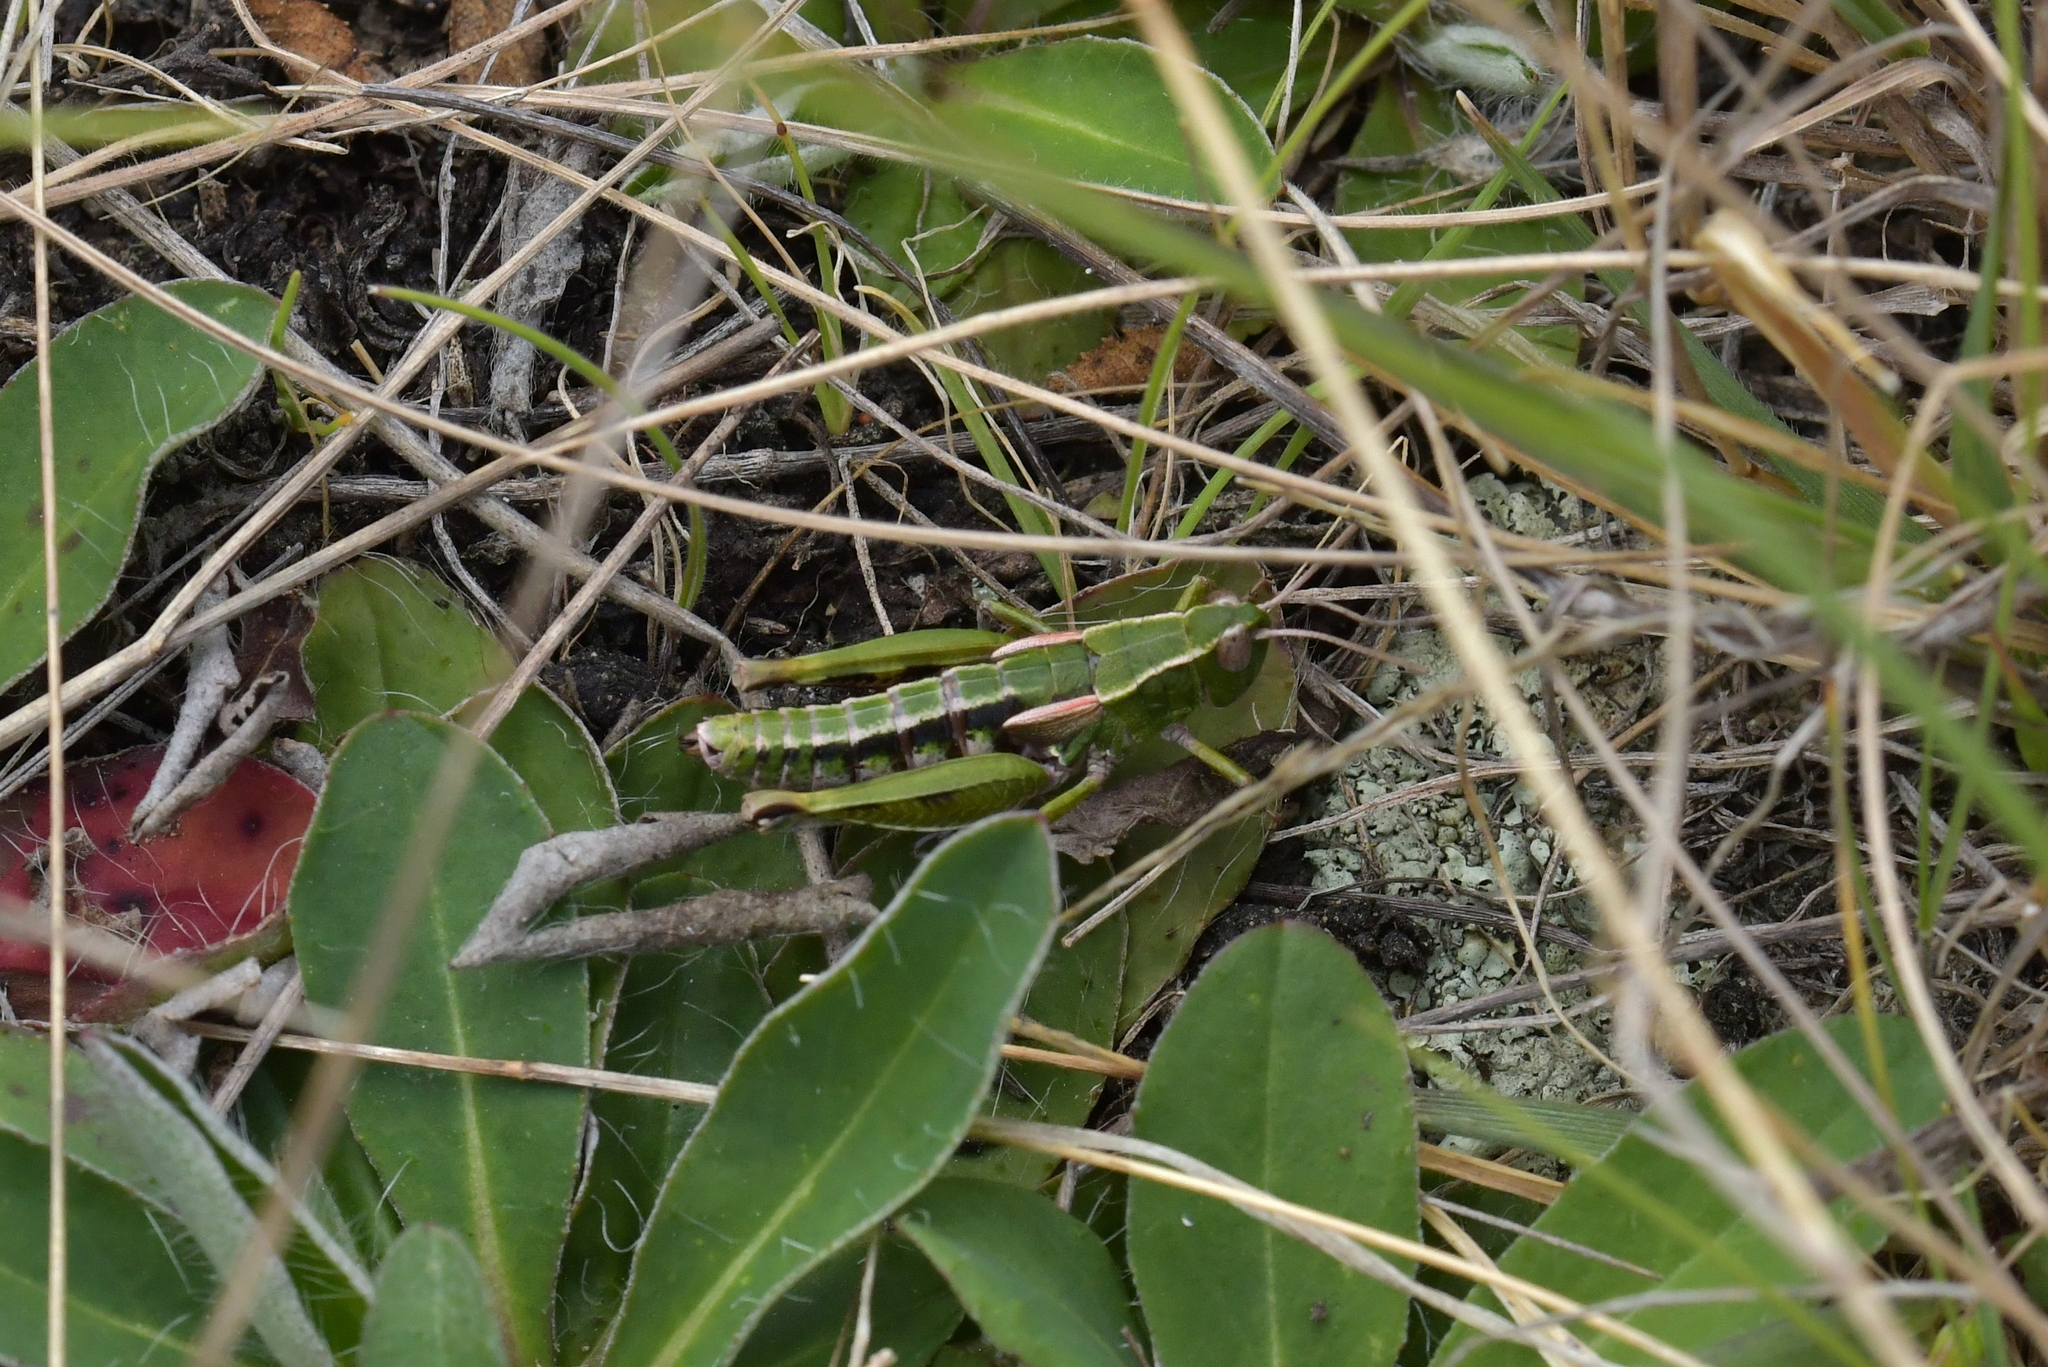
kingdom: Animalia
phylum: Arthropoda
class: Insecta
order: Orthoptera
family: Acrididae
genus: Sigaus
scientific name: Sigaus australis
